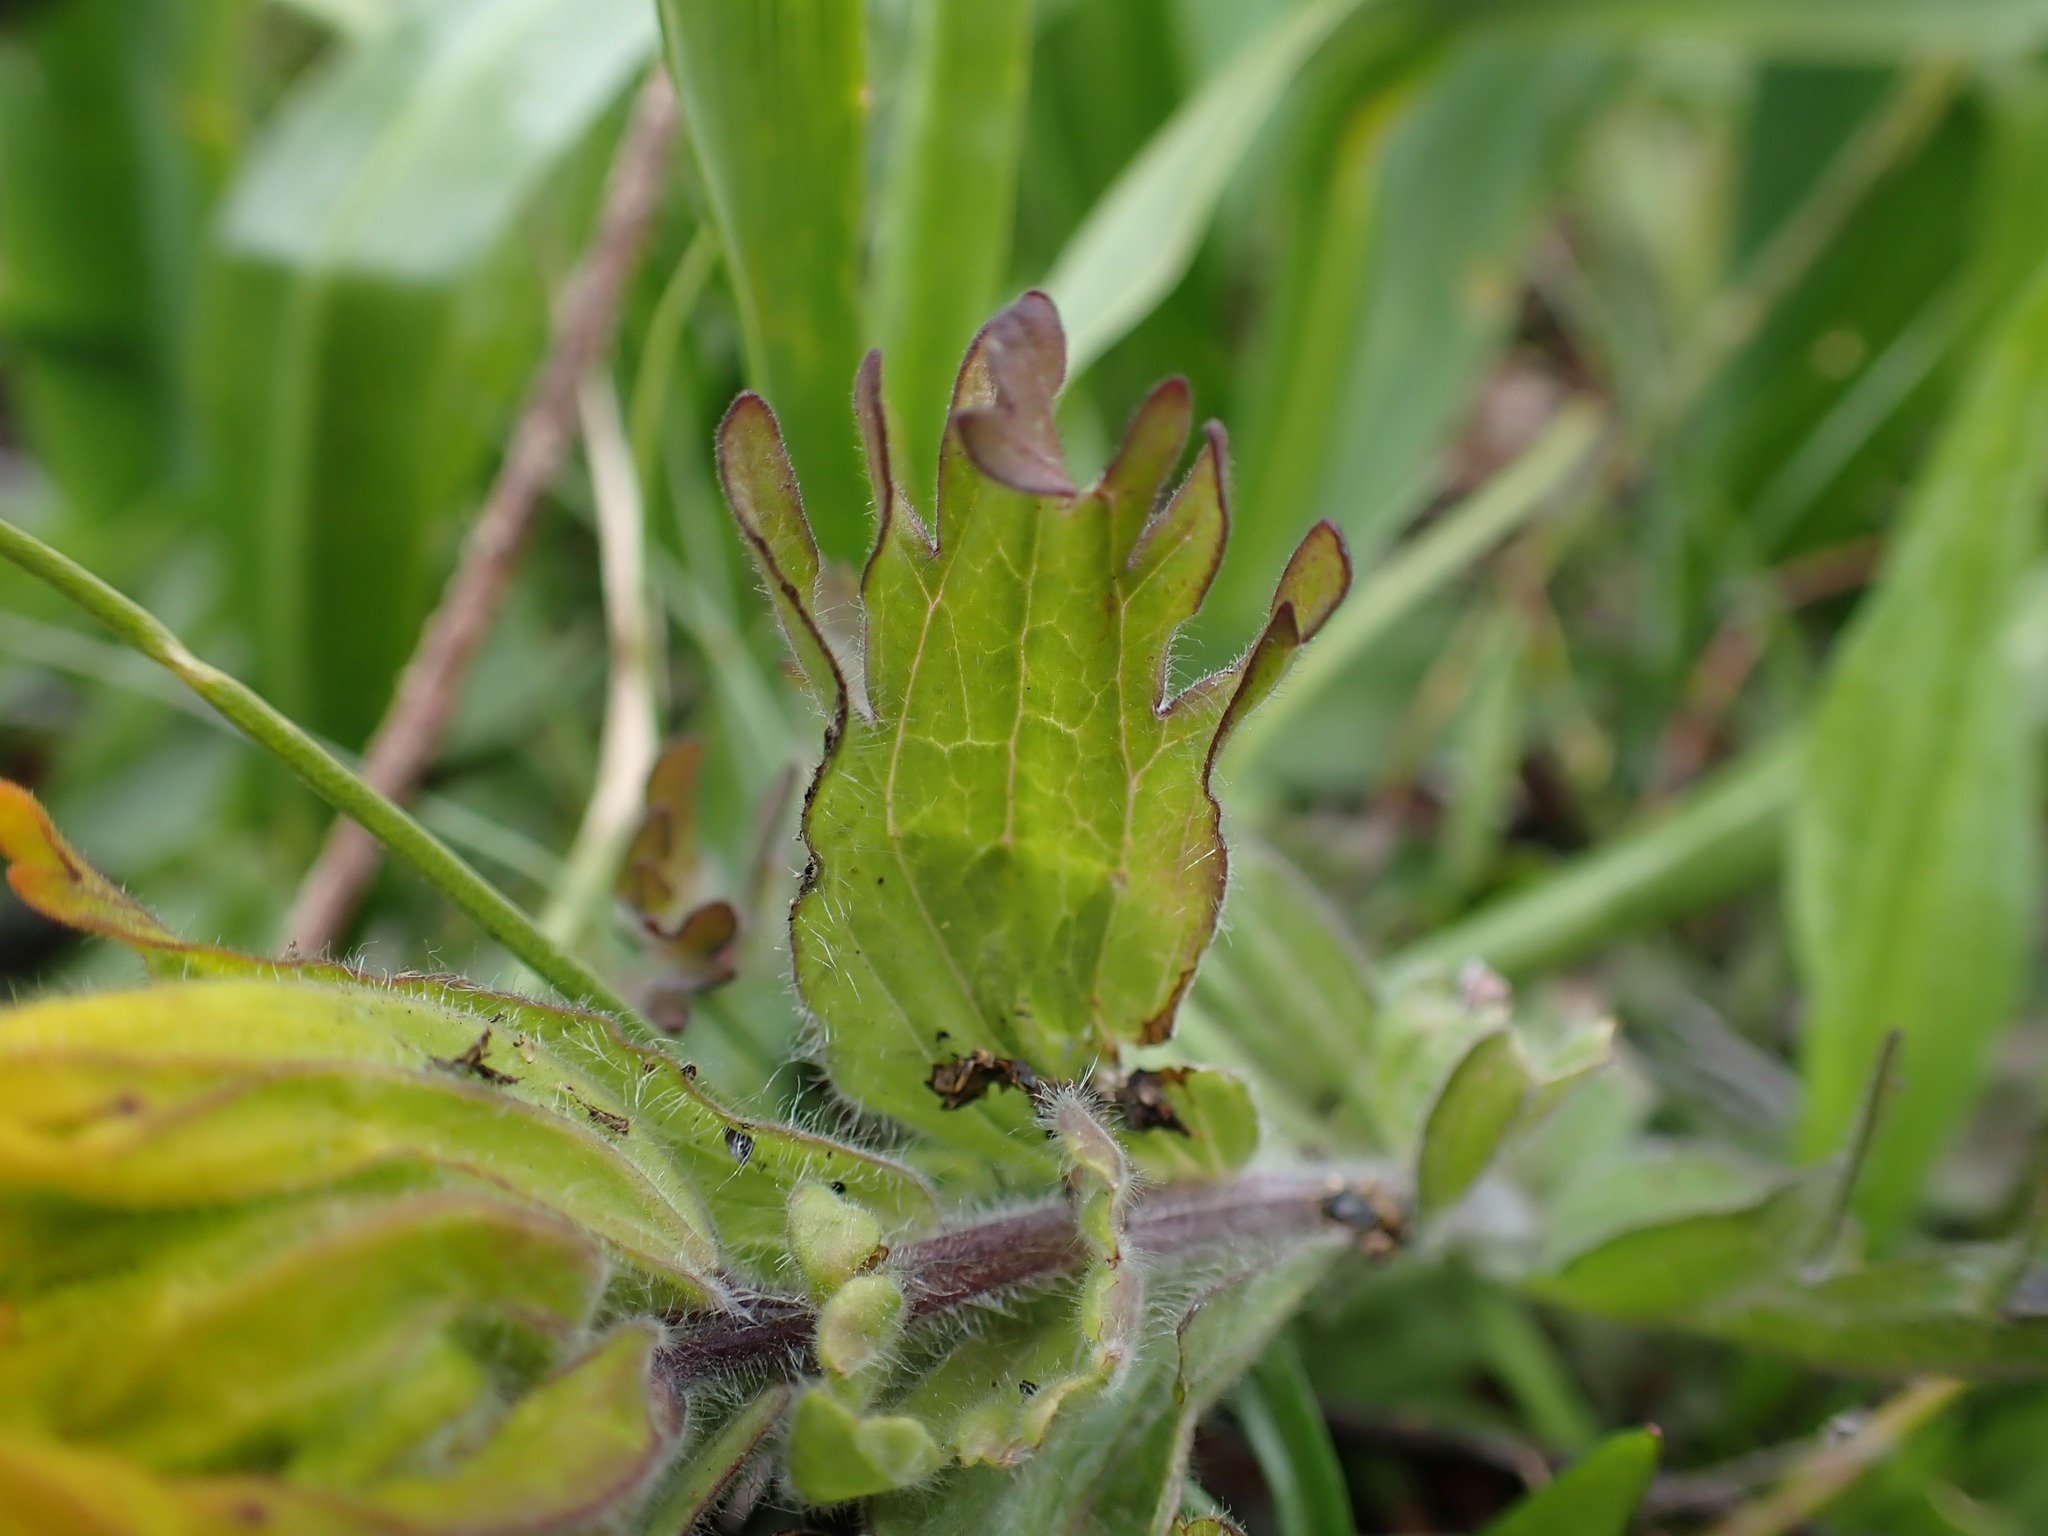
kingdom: Plantae
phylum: Tracheophyta
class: Magnoliopsida
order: Lamiales
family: Orobanchaceae
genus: Castilleja
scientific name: Castilleja levisecta
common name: Golden paintbrush
